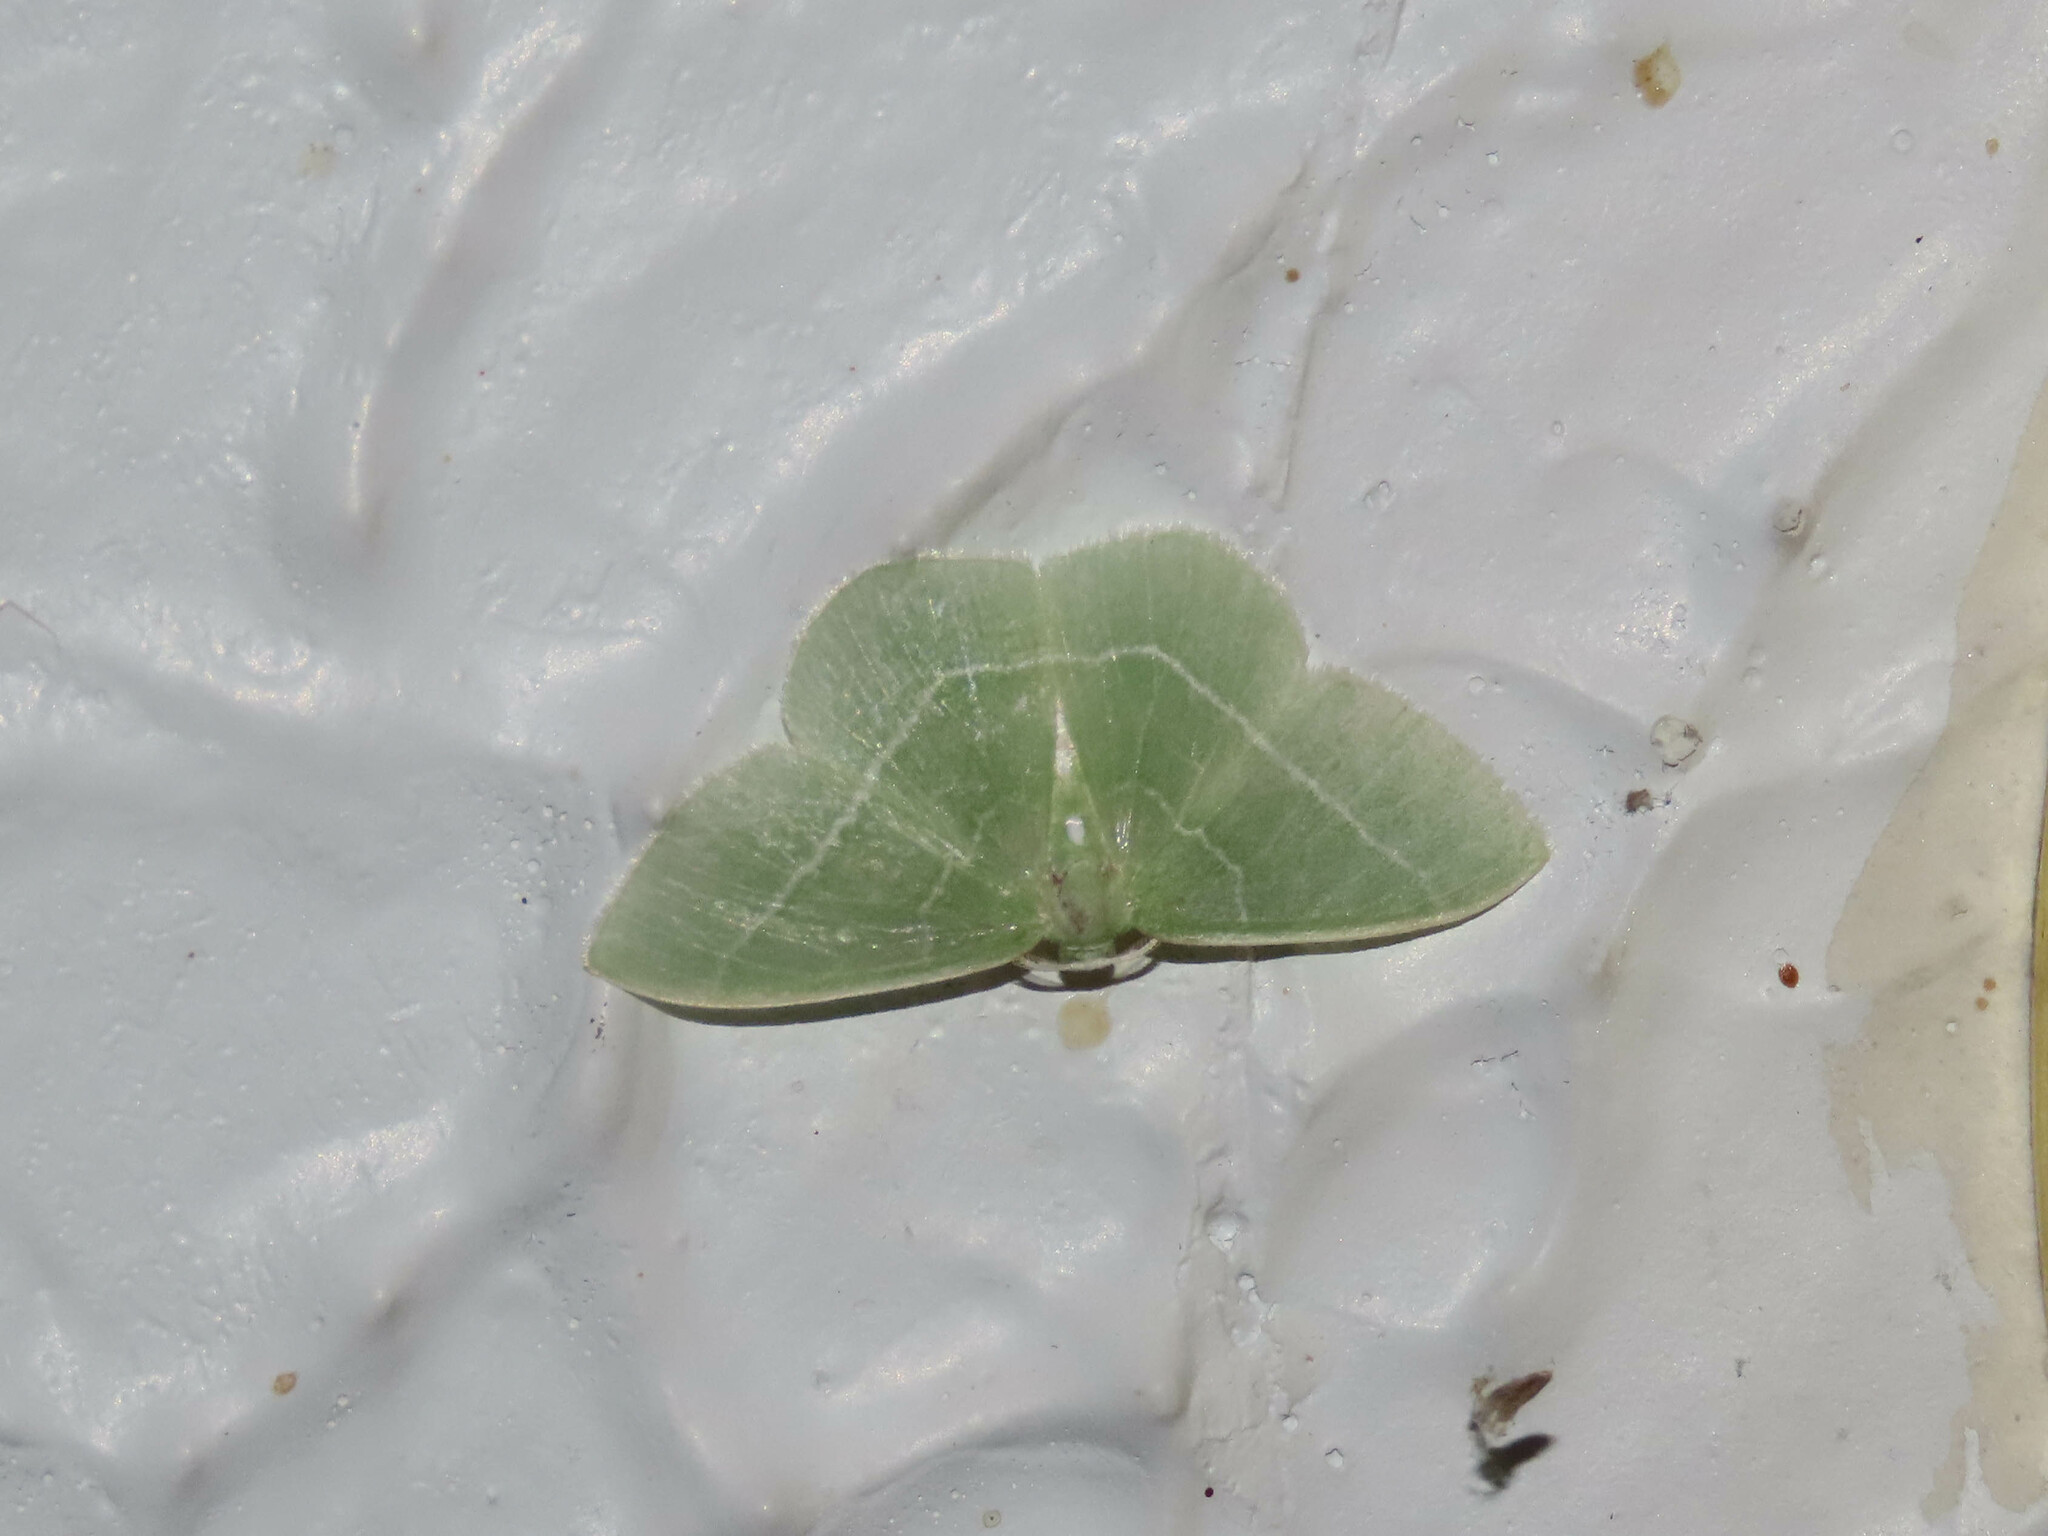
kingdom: Animalia
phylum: Arthropoda
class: Insecta
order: Lepidoptera
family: Geometridae
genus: Nemoria
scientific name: Nemoria mimosaria
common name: White-fringed emerald
